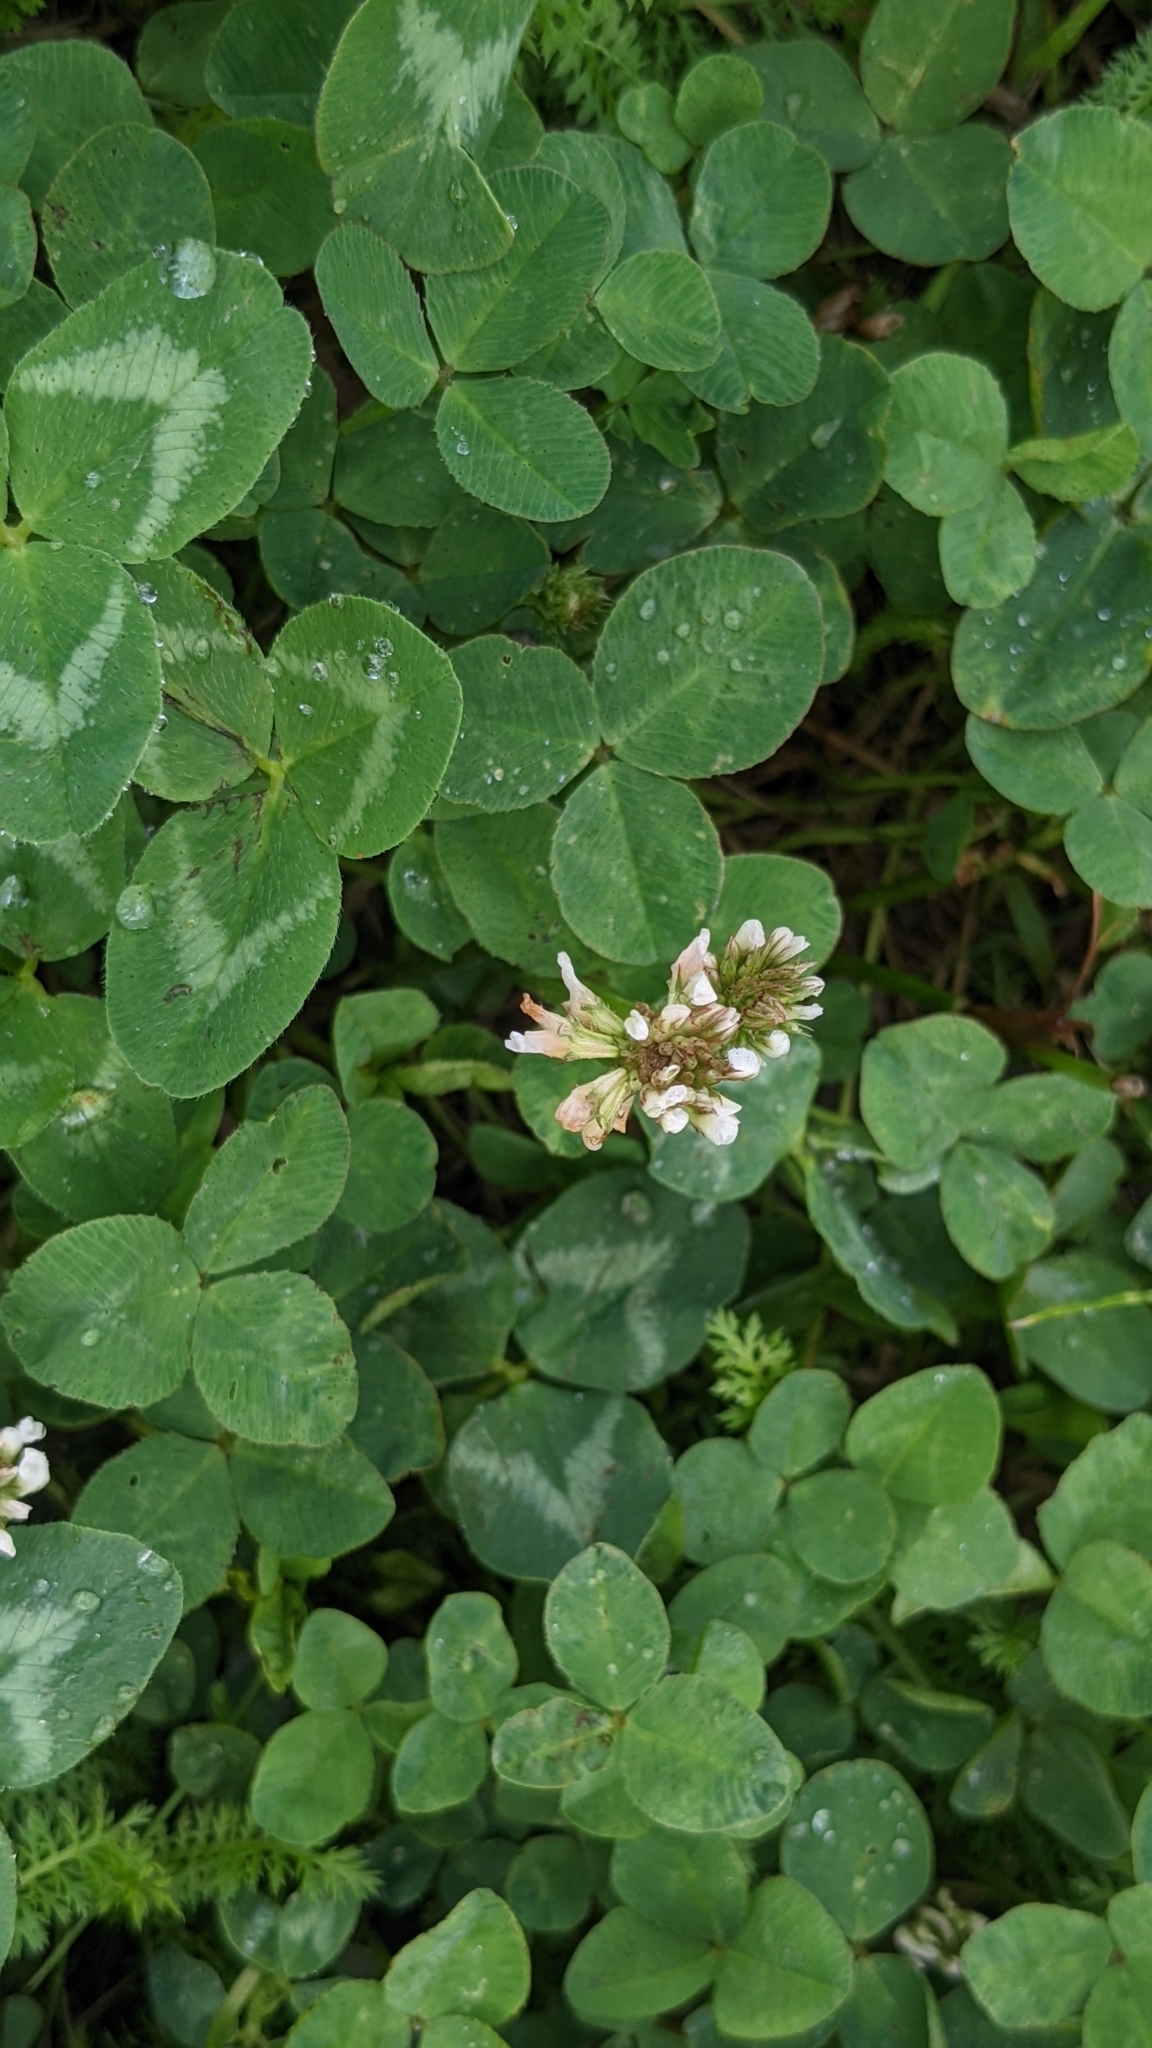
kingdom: Plantae
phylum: Tracheophyta
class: Magnoliopsida
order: Fabales
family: Fabaceae
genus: Trifolium
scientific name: Trifolium repens
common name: White clover
